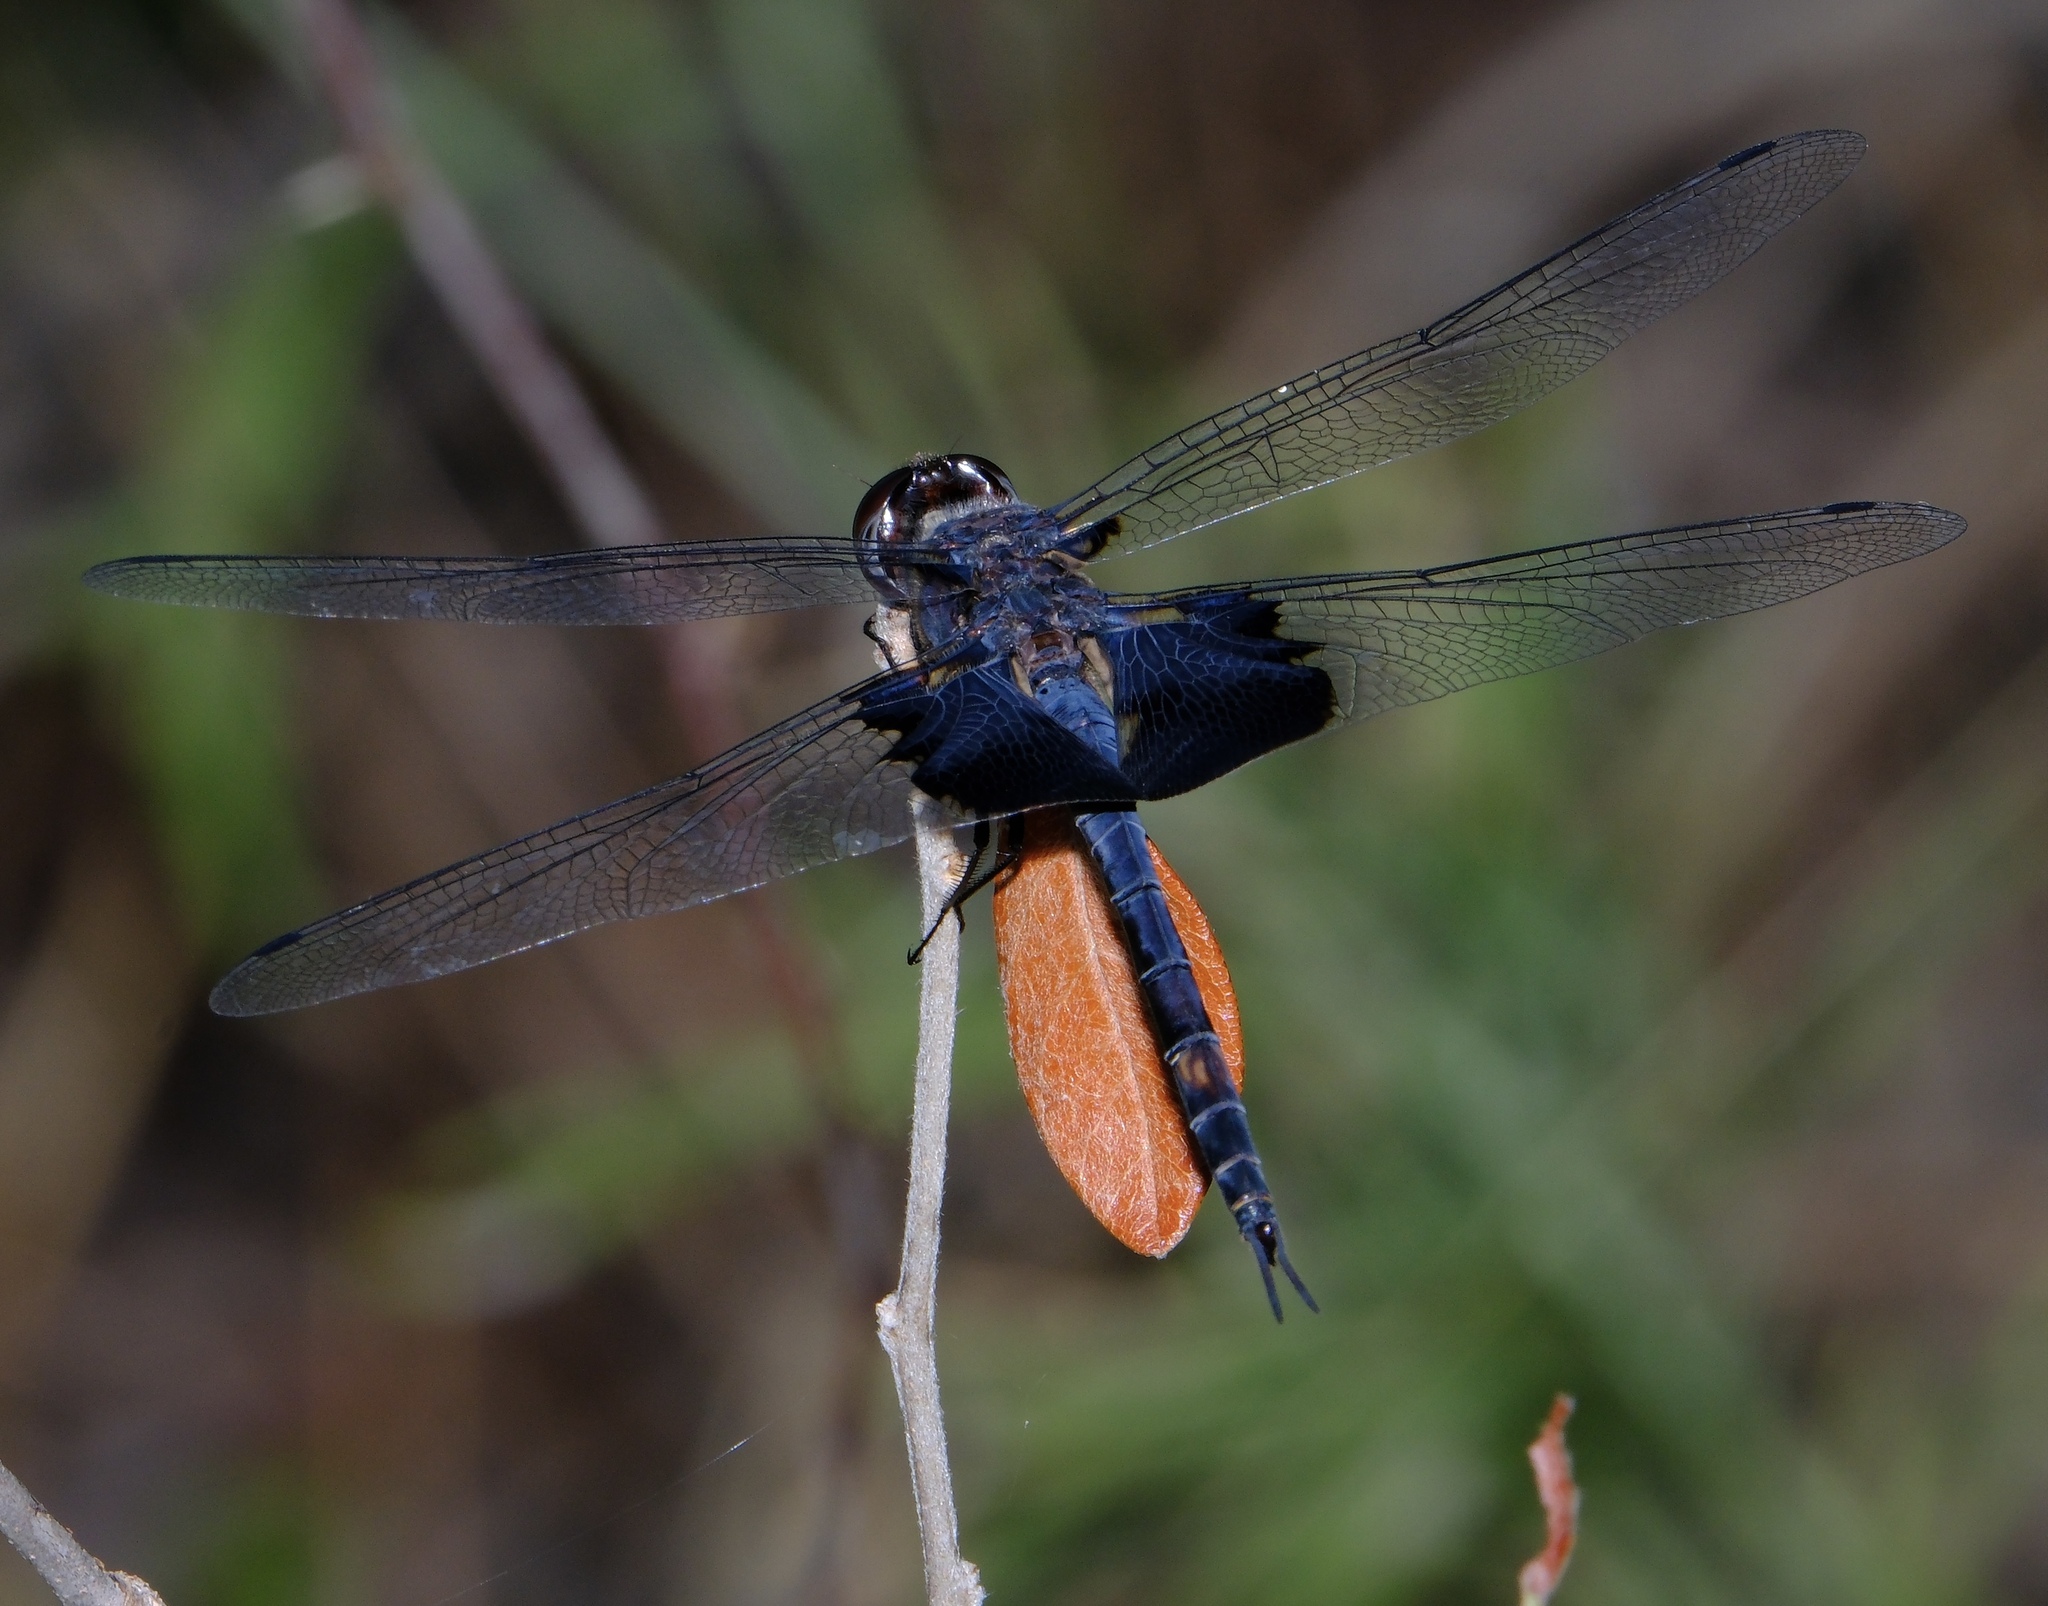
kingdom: Animalia
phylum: Arthropoda
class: Insecta
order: Odonata
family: Libellulidae
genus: Tramea
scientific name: Tramea lacerata
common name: Black saddlebags
